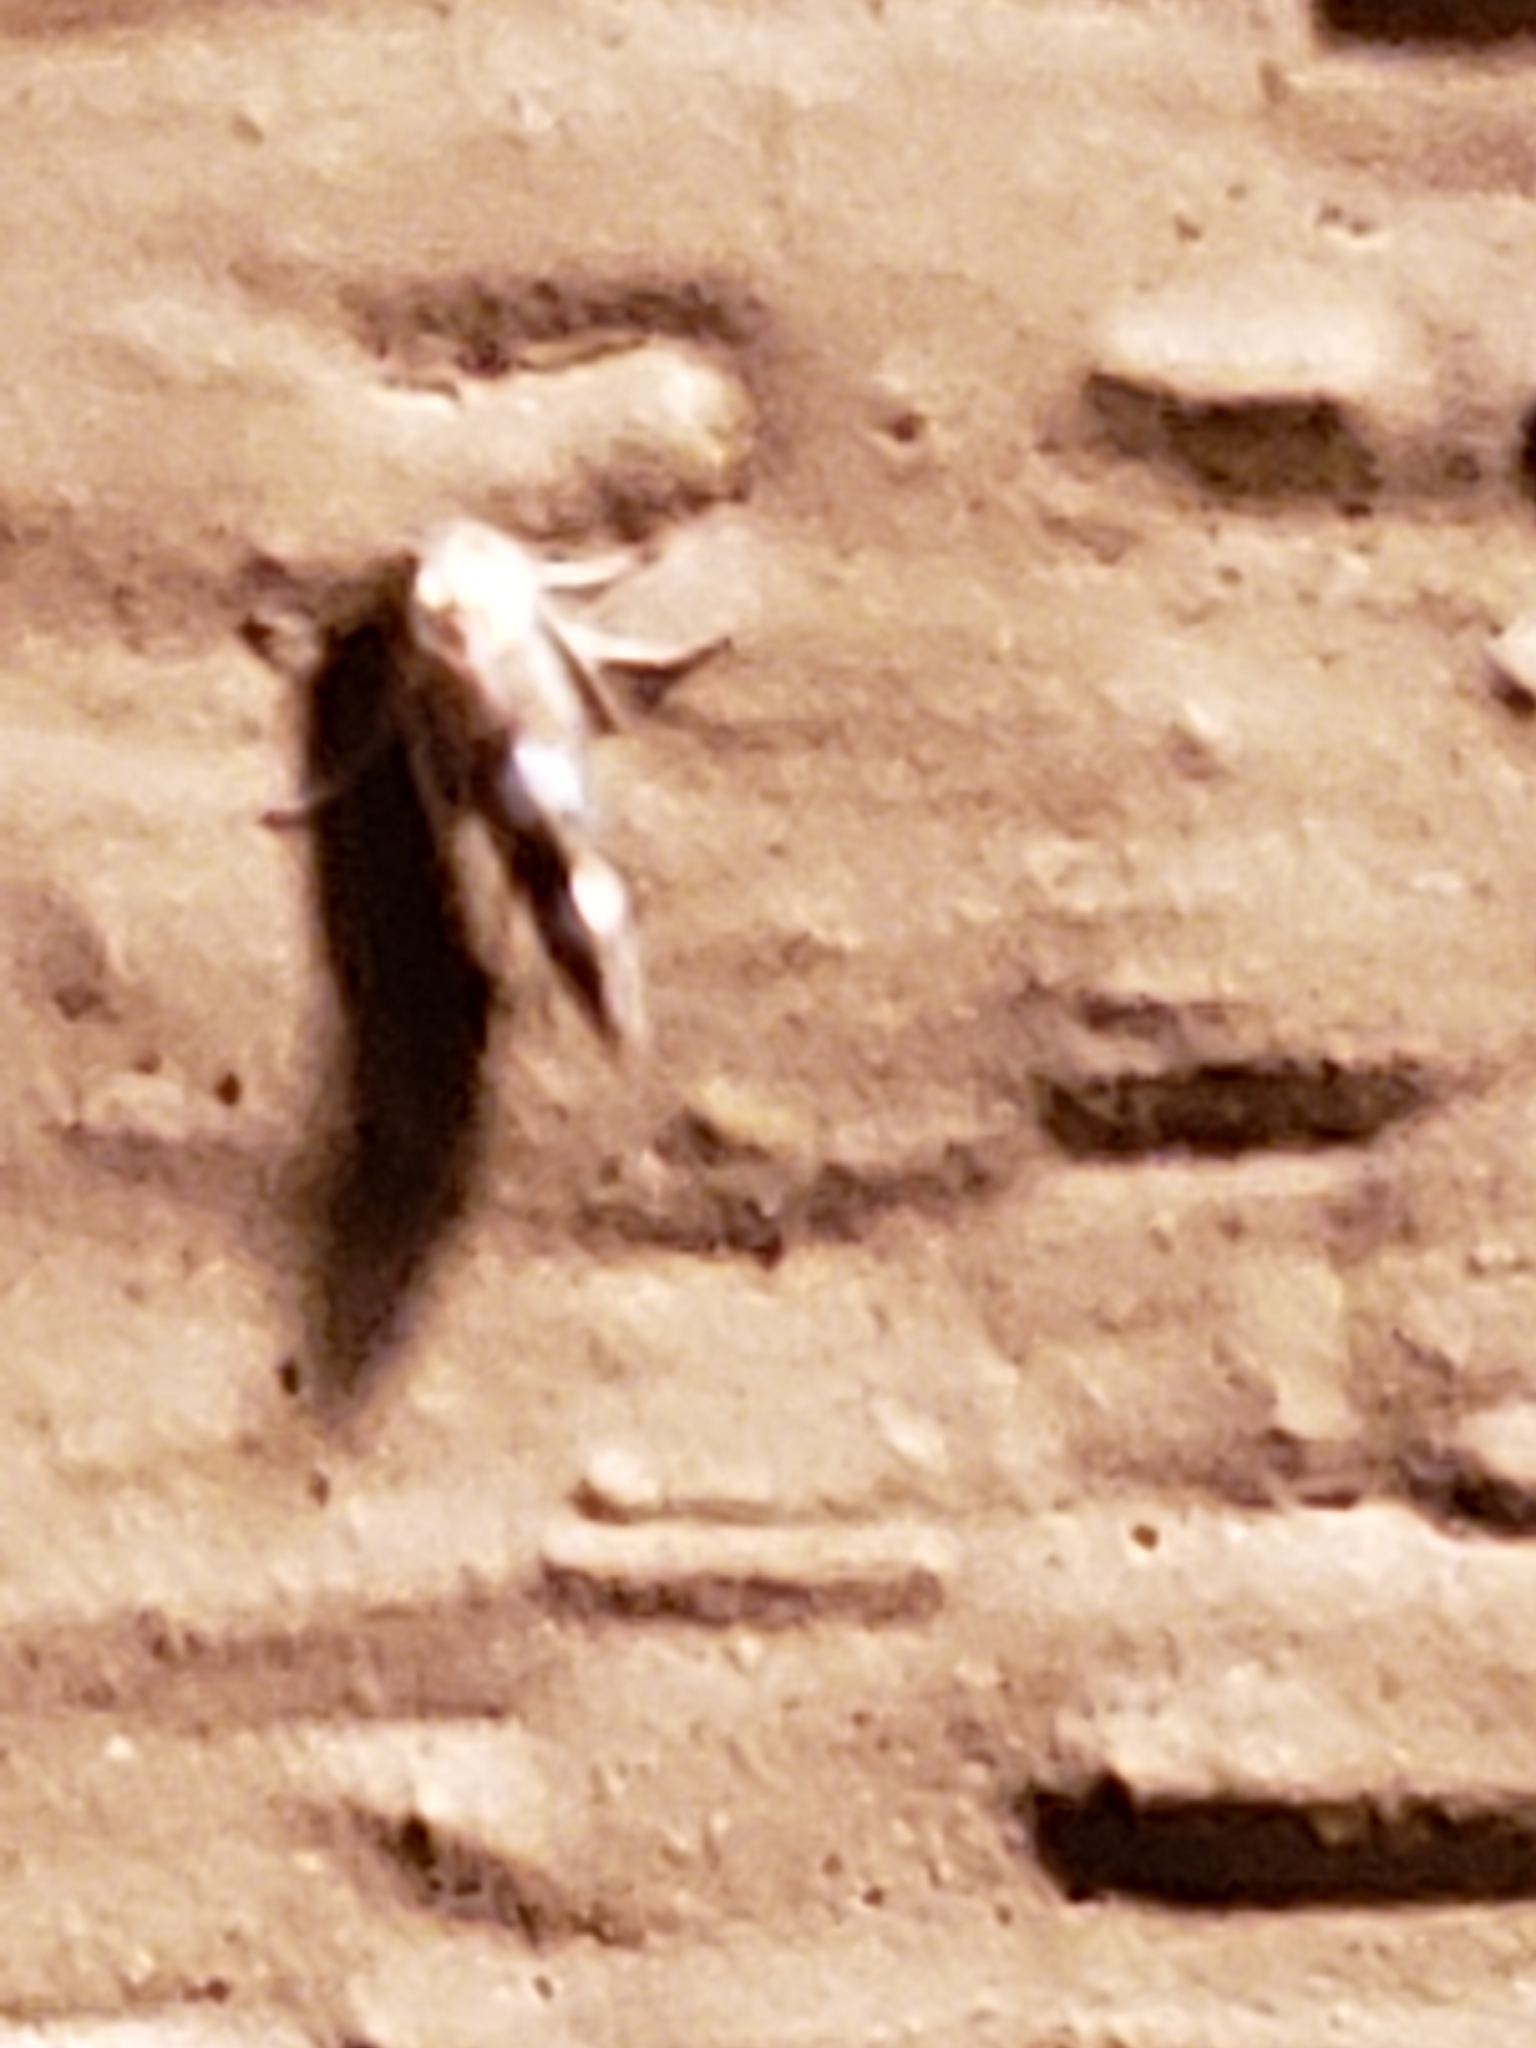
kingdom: Animalia
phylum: Arthropoda
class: Insecta
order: Lepidoptera
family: Argyresthiidae
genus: Argyresthia
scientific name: Argyresthia oreasella
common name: Cherry shoot borer moth
